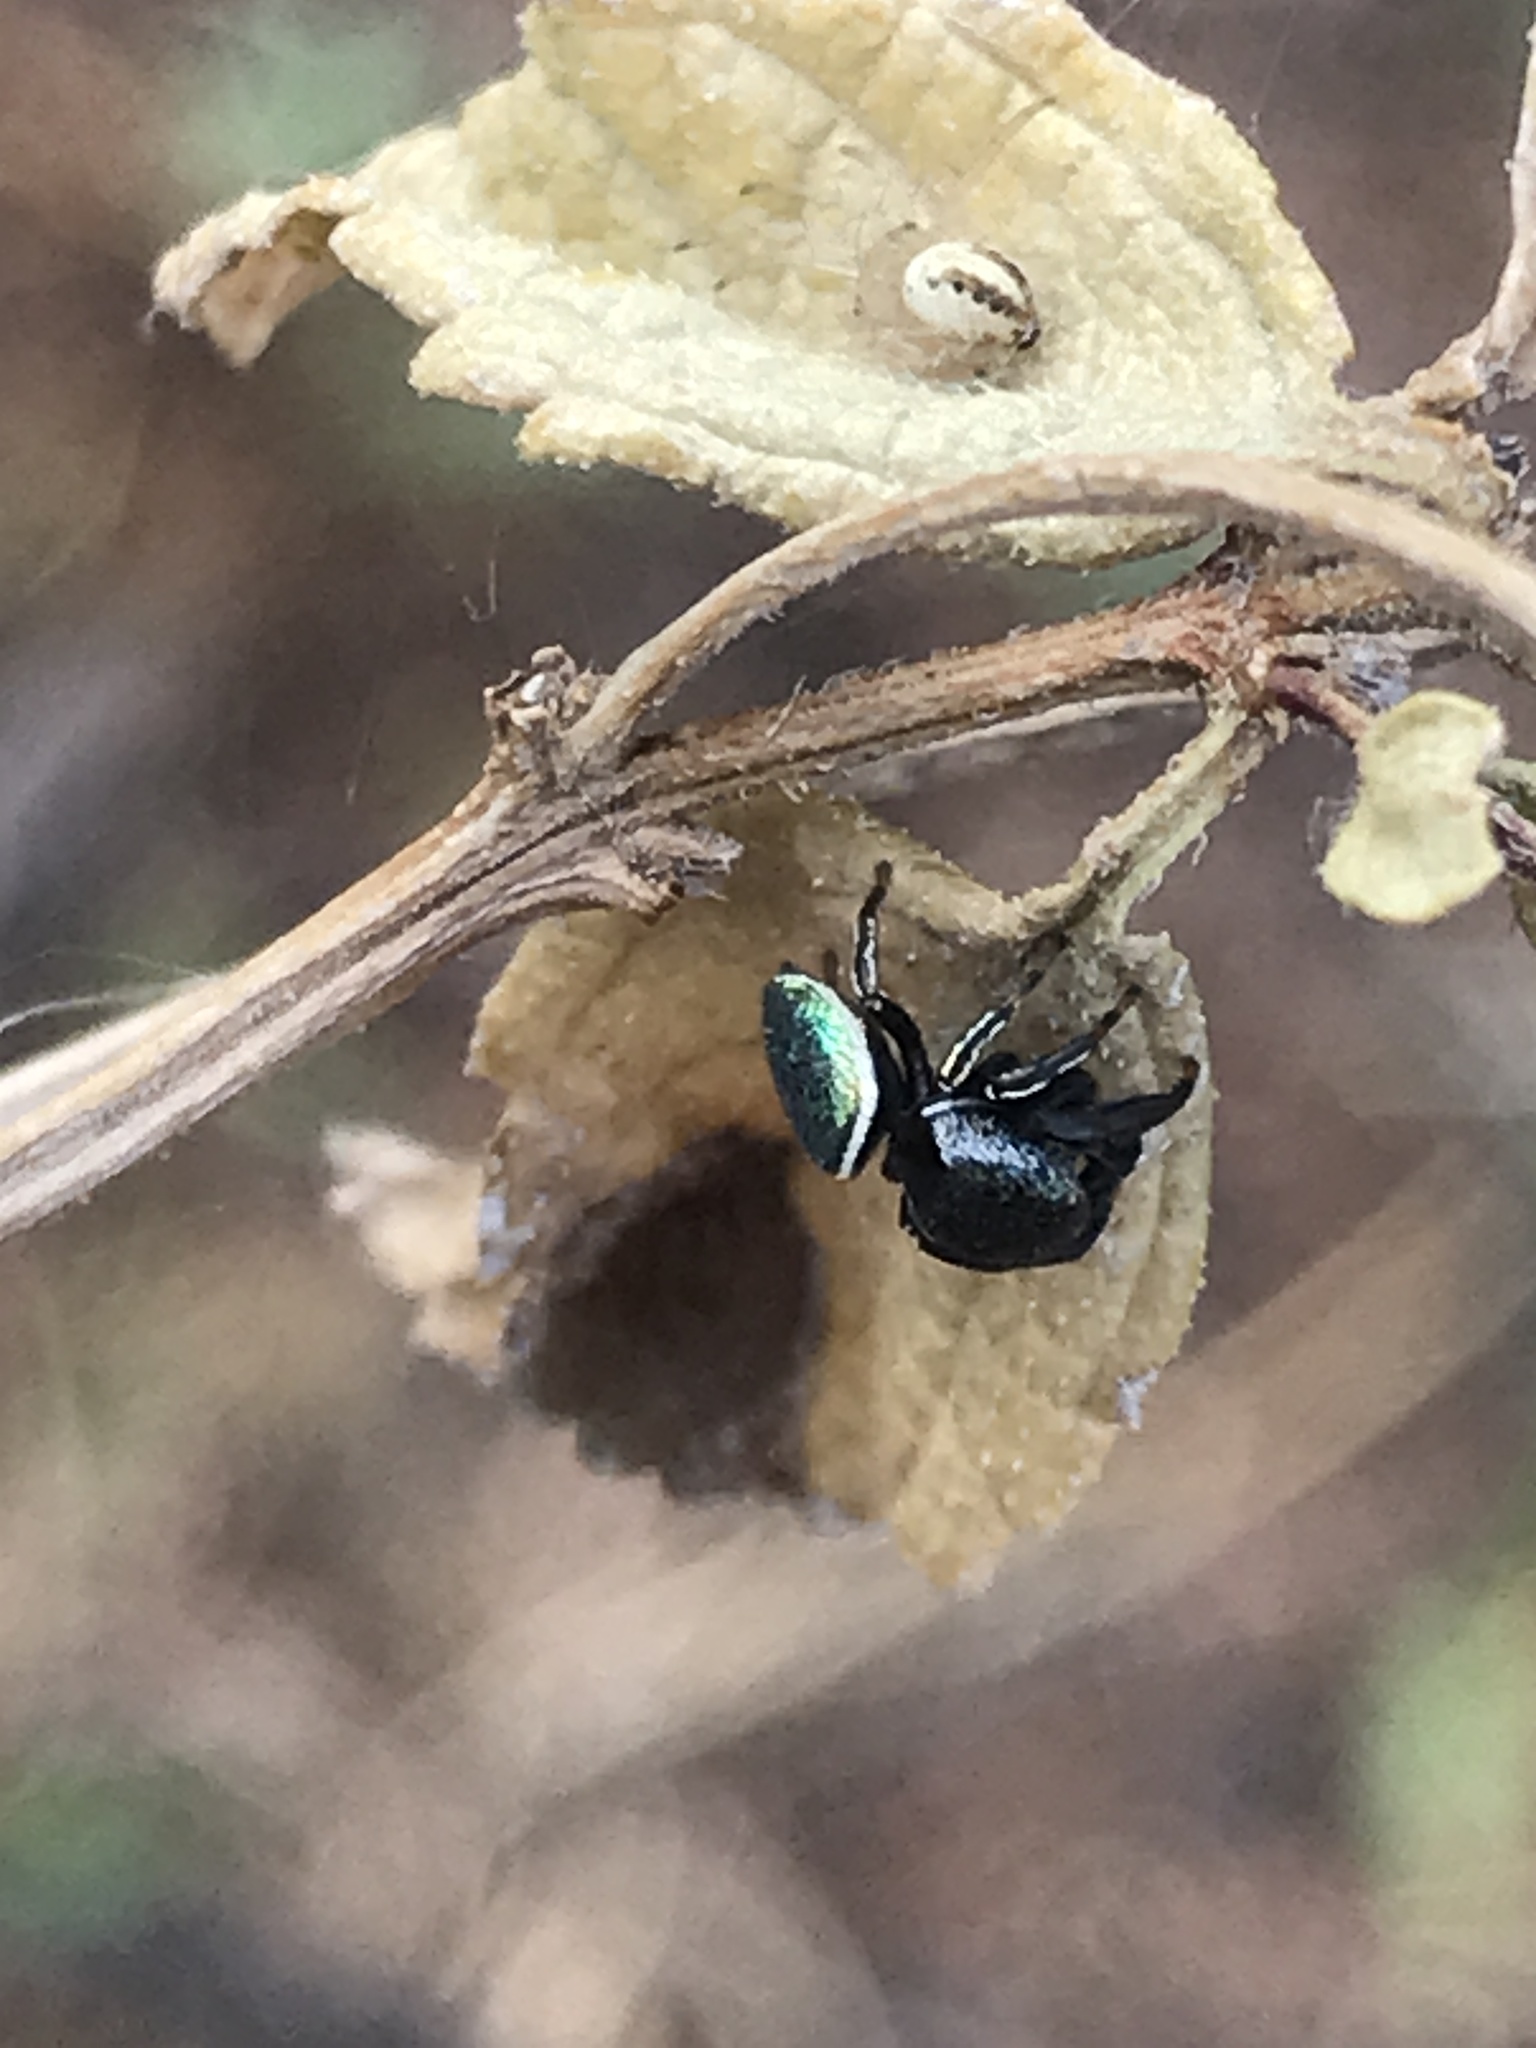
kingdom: Animalia
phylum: Arthropoda
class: Arachnida
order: Araneae
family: Salticidae
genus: Sassacus
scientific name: Sassacus papenhoei
